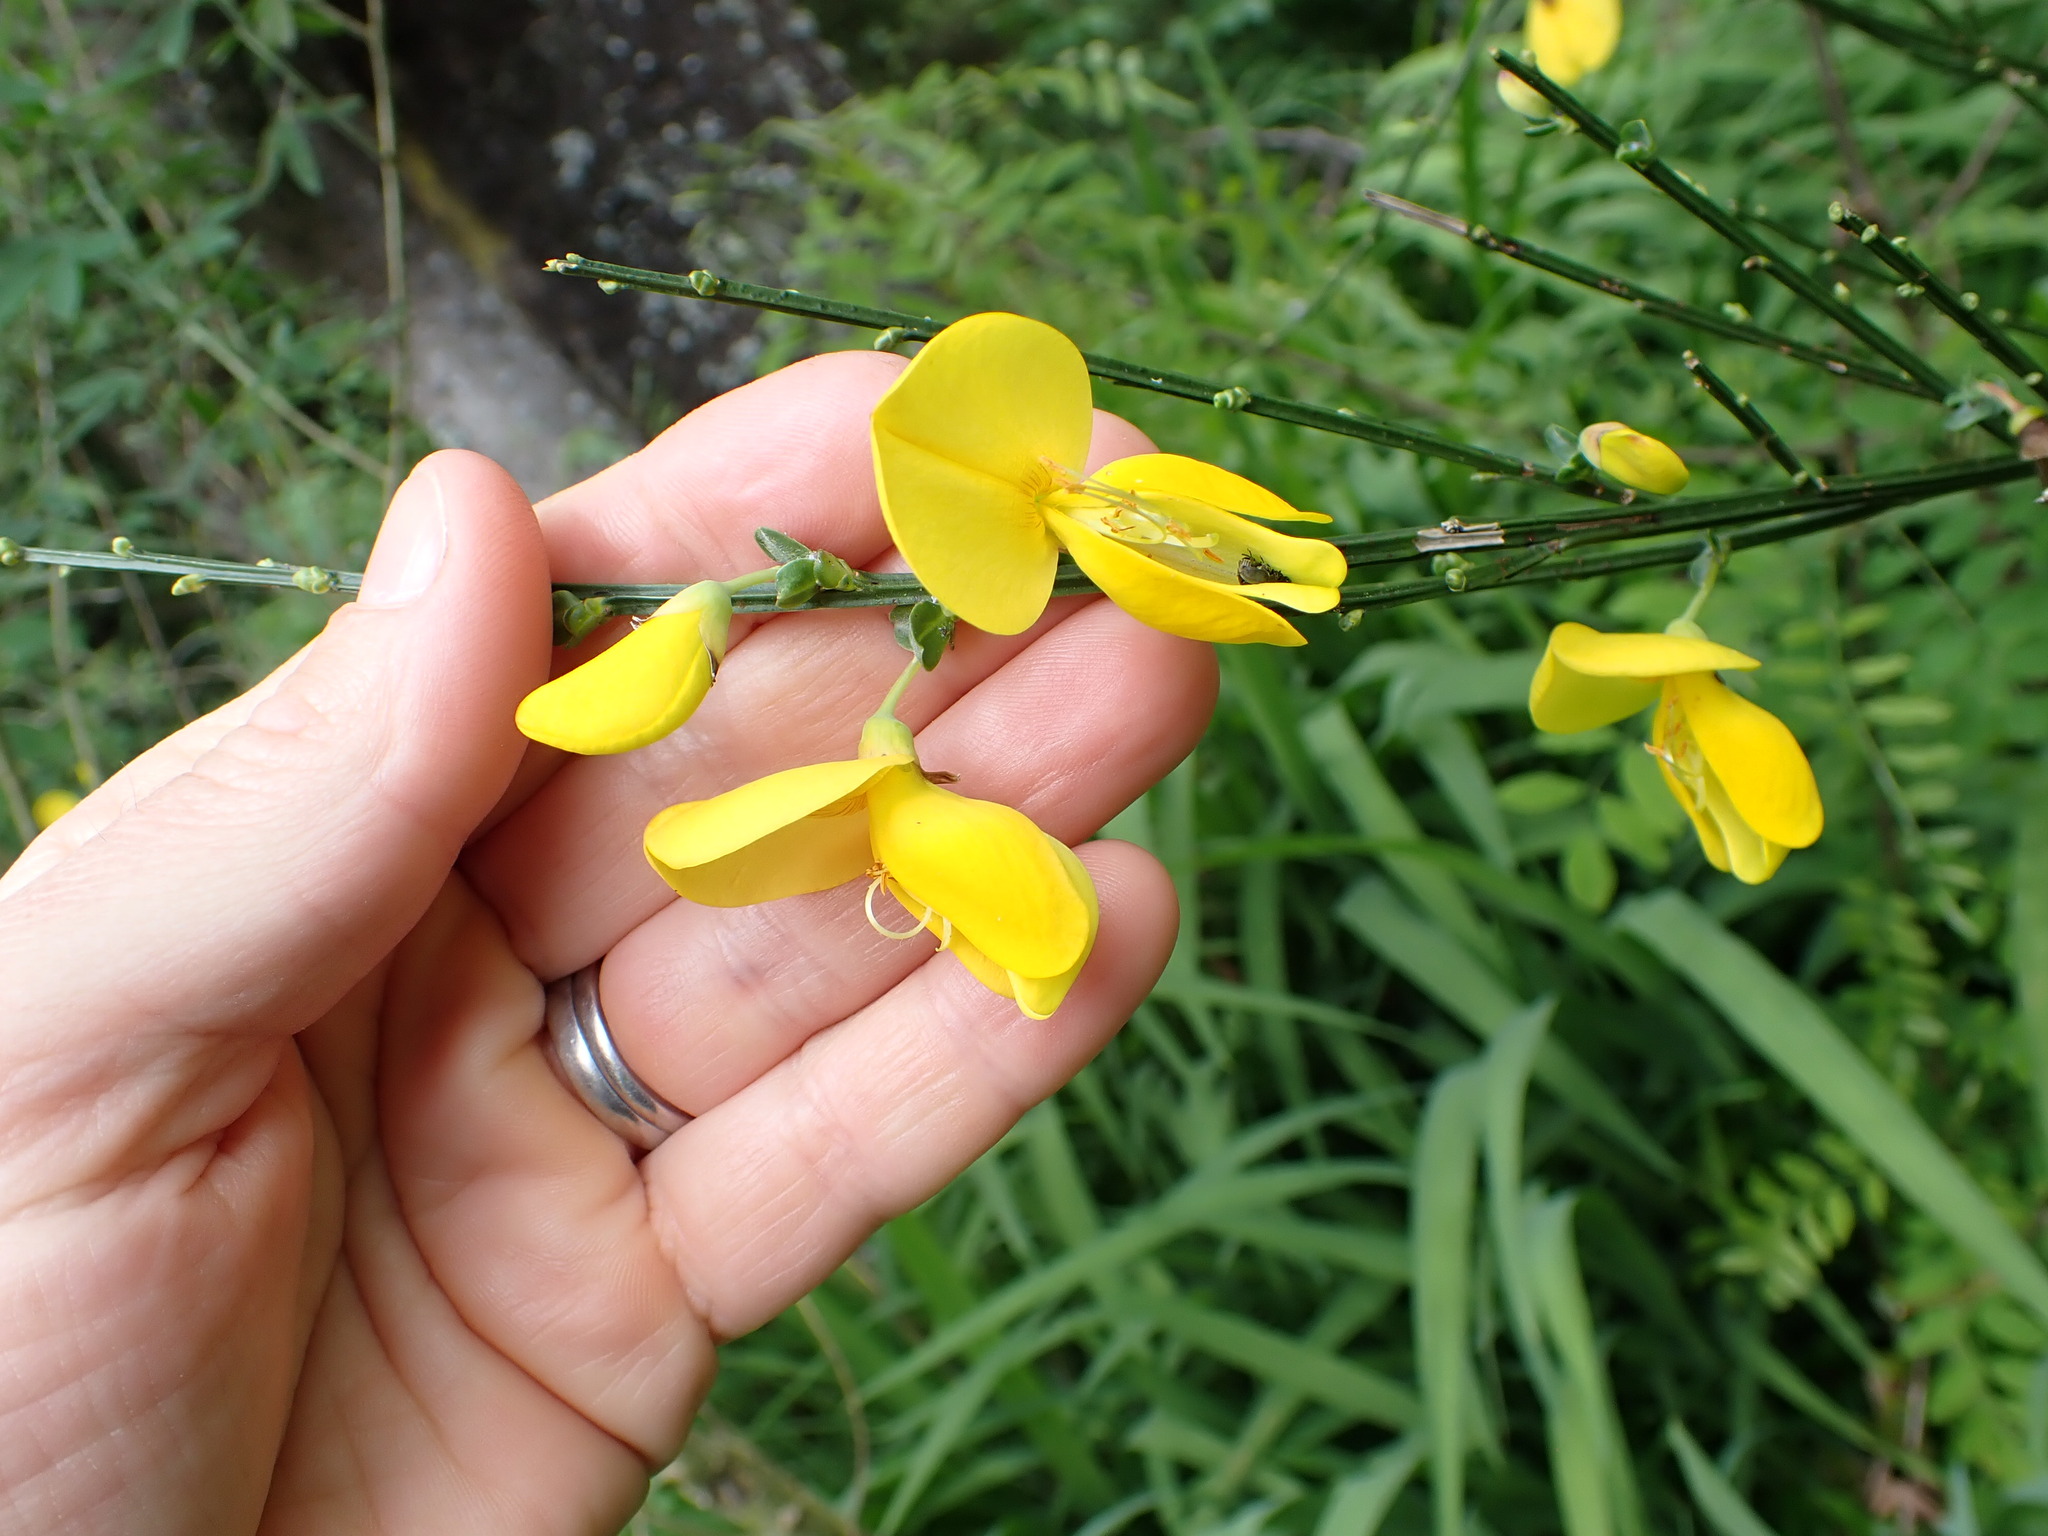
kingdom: Plantae
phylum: Tracheophyta
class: Magnoliopsida
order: Fabales
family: Fabaceae
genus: Cytisus
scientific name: Cytisus scoparius
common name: Scotch broom
